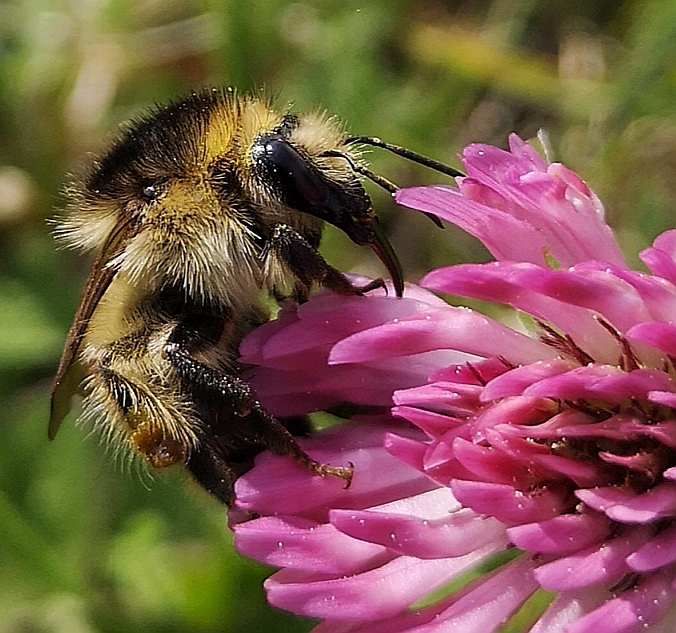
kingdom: Animalia
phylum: Arthropoda
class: Insecta
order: Hymenoptera
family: Apidae
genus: Bombus
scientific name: Bombus humilis
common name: Brown-banded carder-bee
